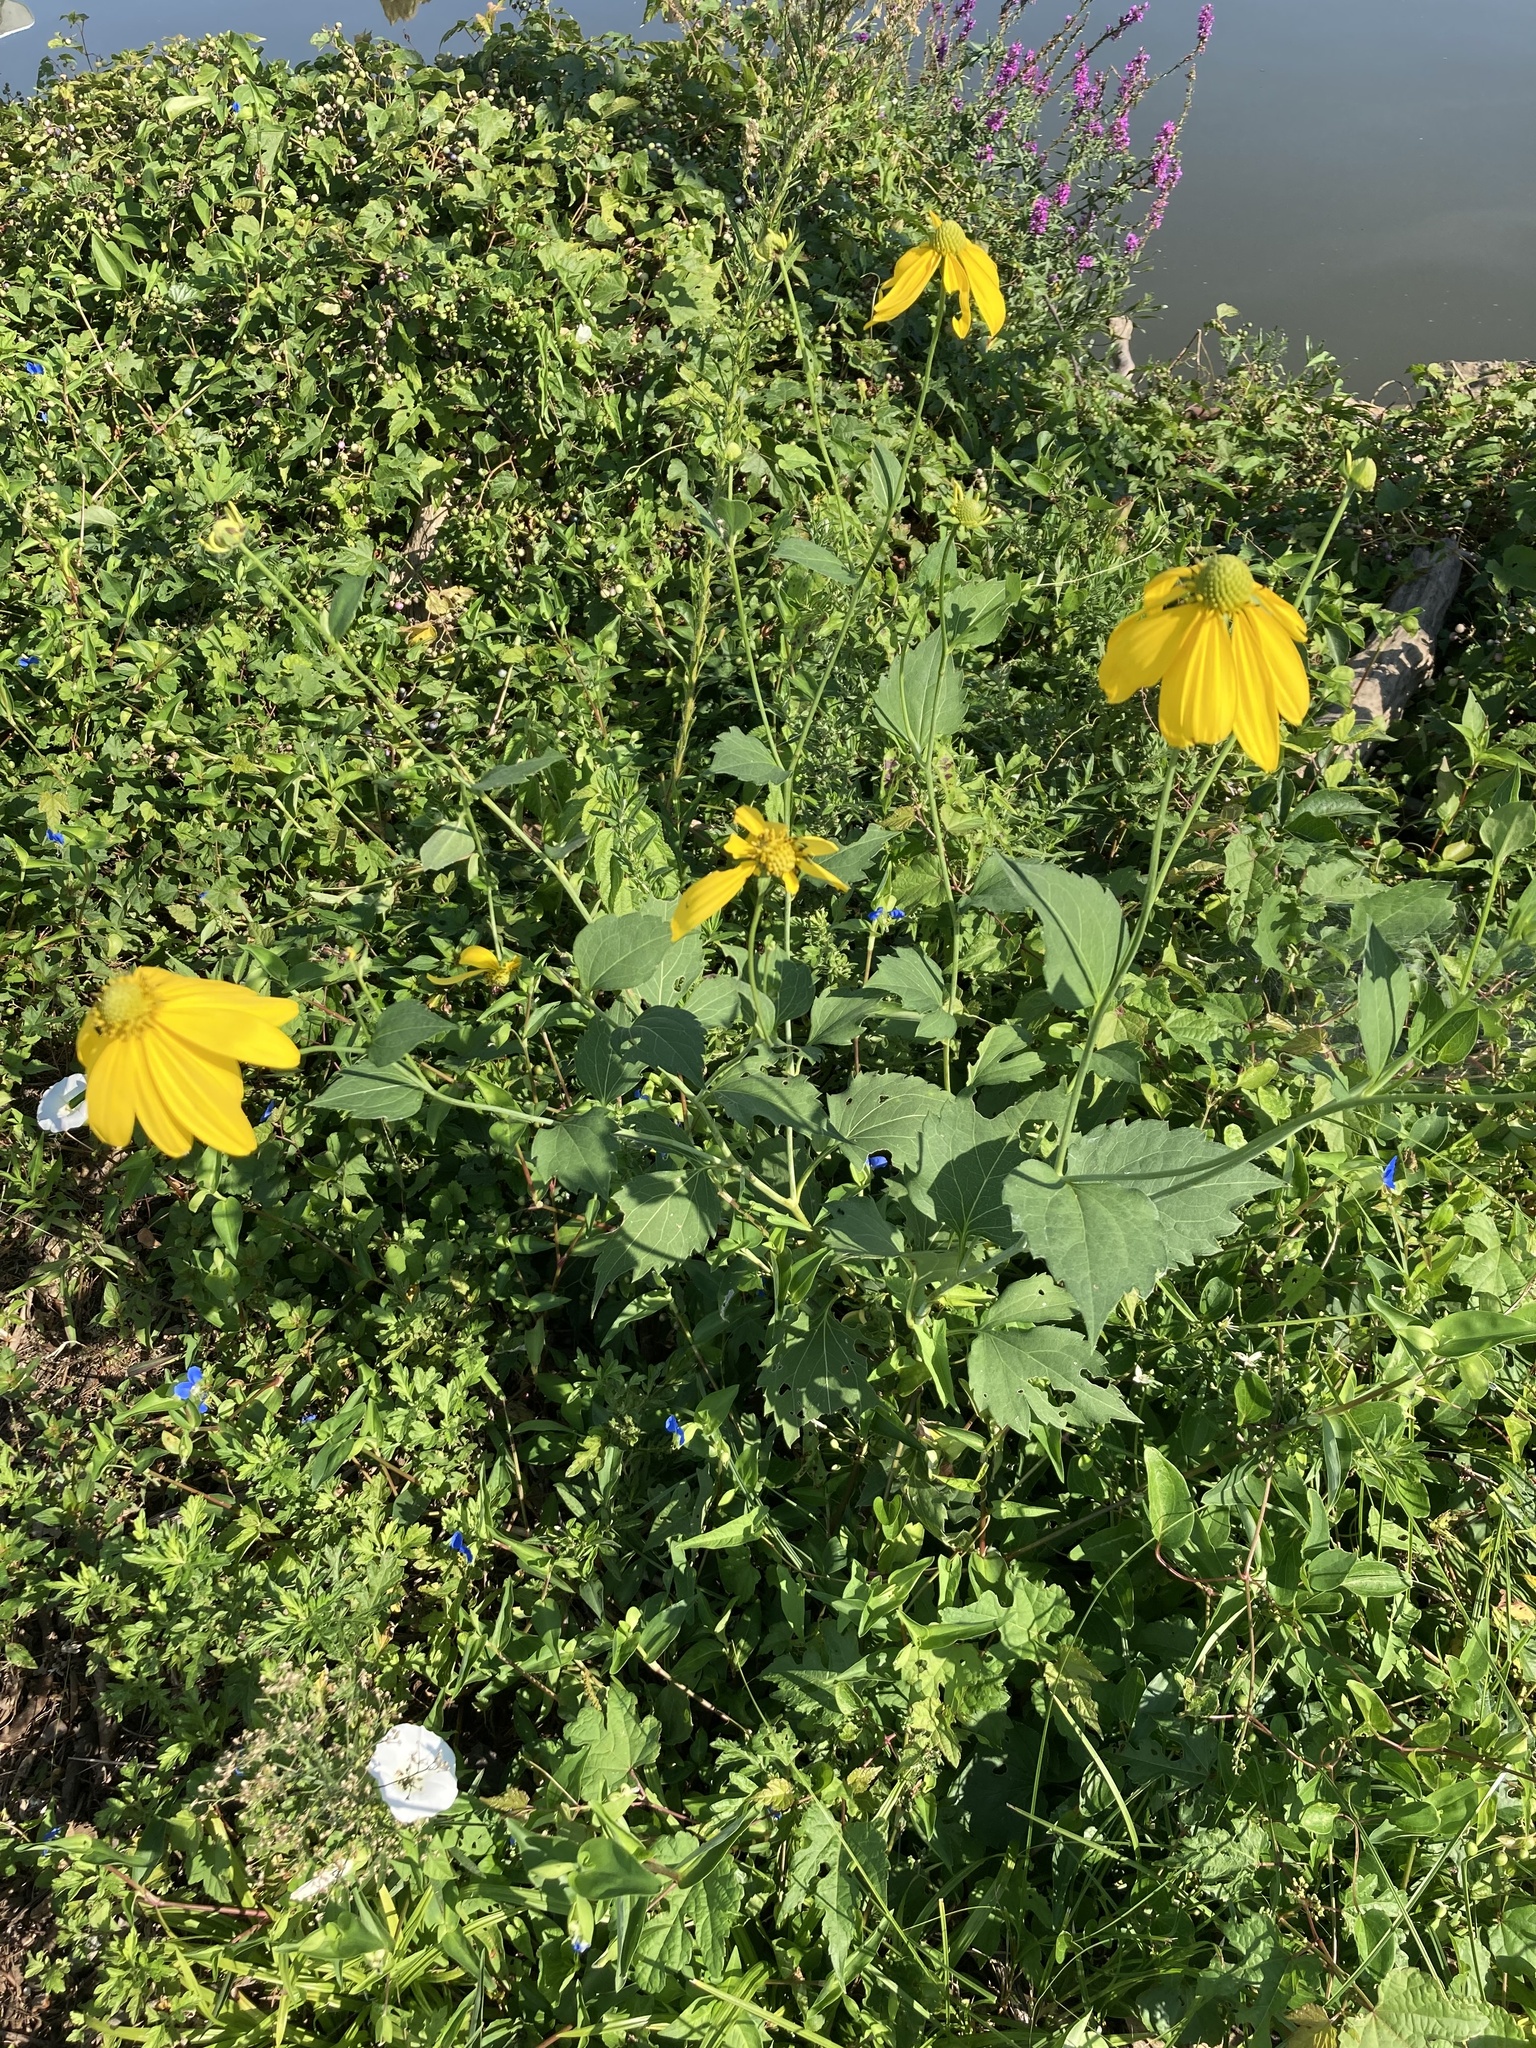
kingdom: Plantae
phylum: Tracheophyta
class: Magnoliopsida
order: Asterales
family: Asteraceae
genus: Rudbeckia
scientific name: Rudbeckia laciniata
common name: Coneflower
